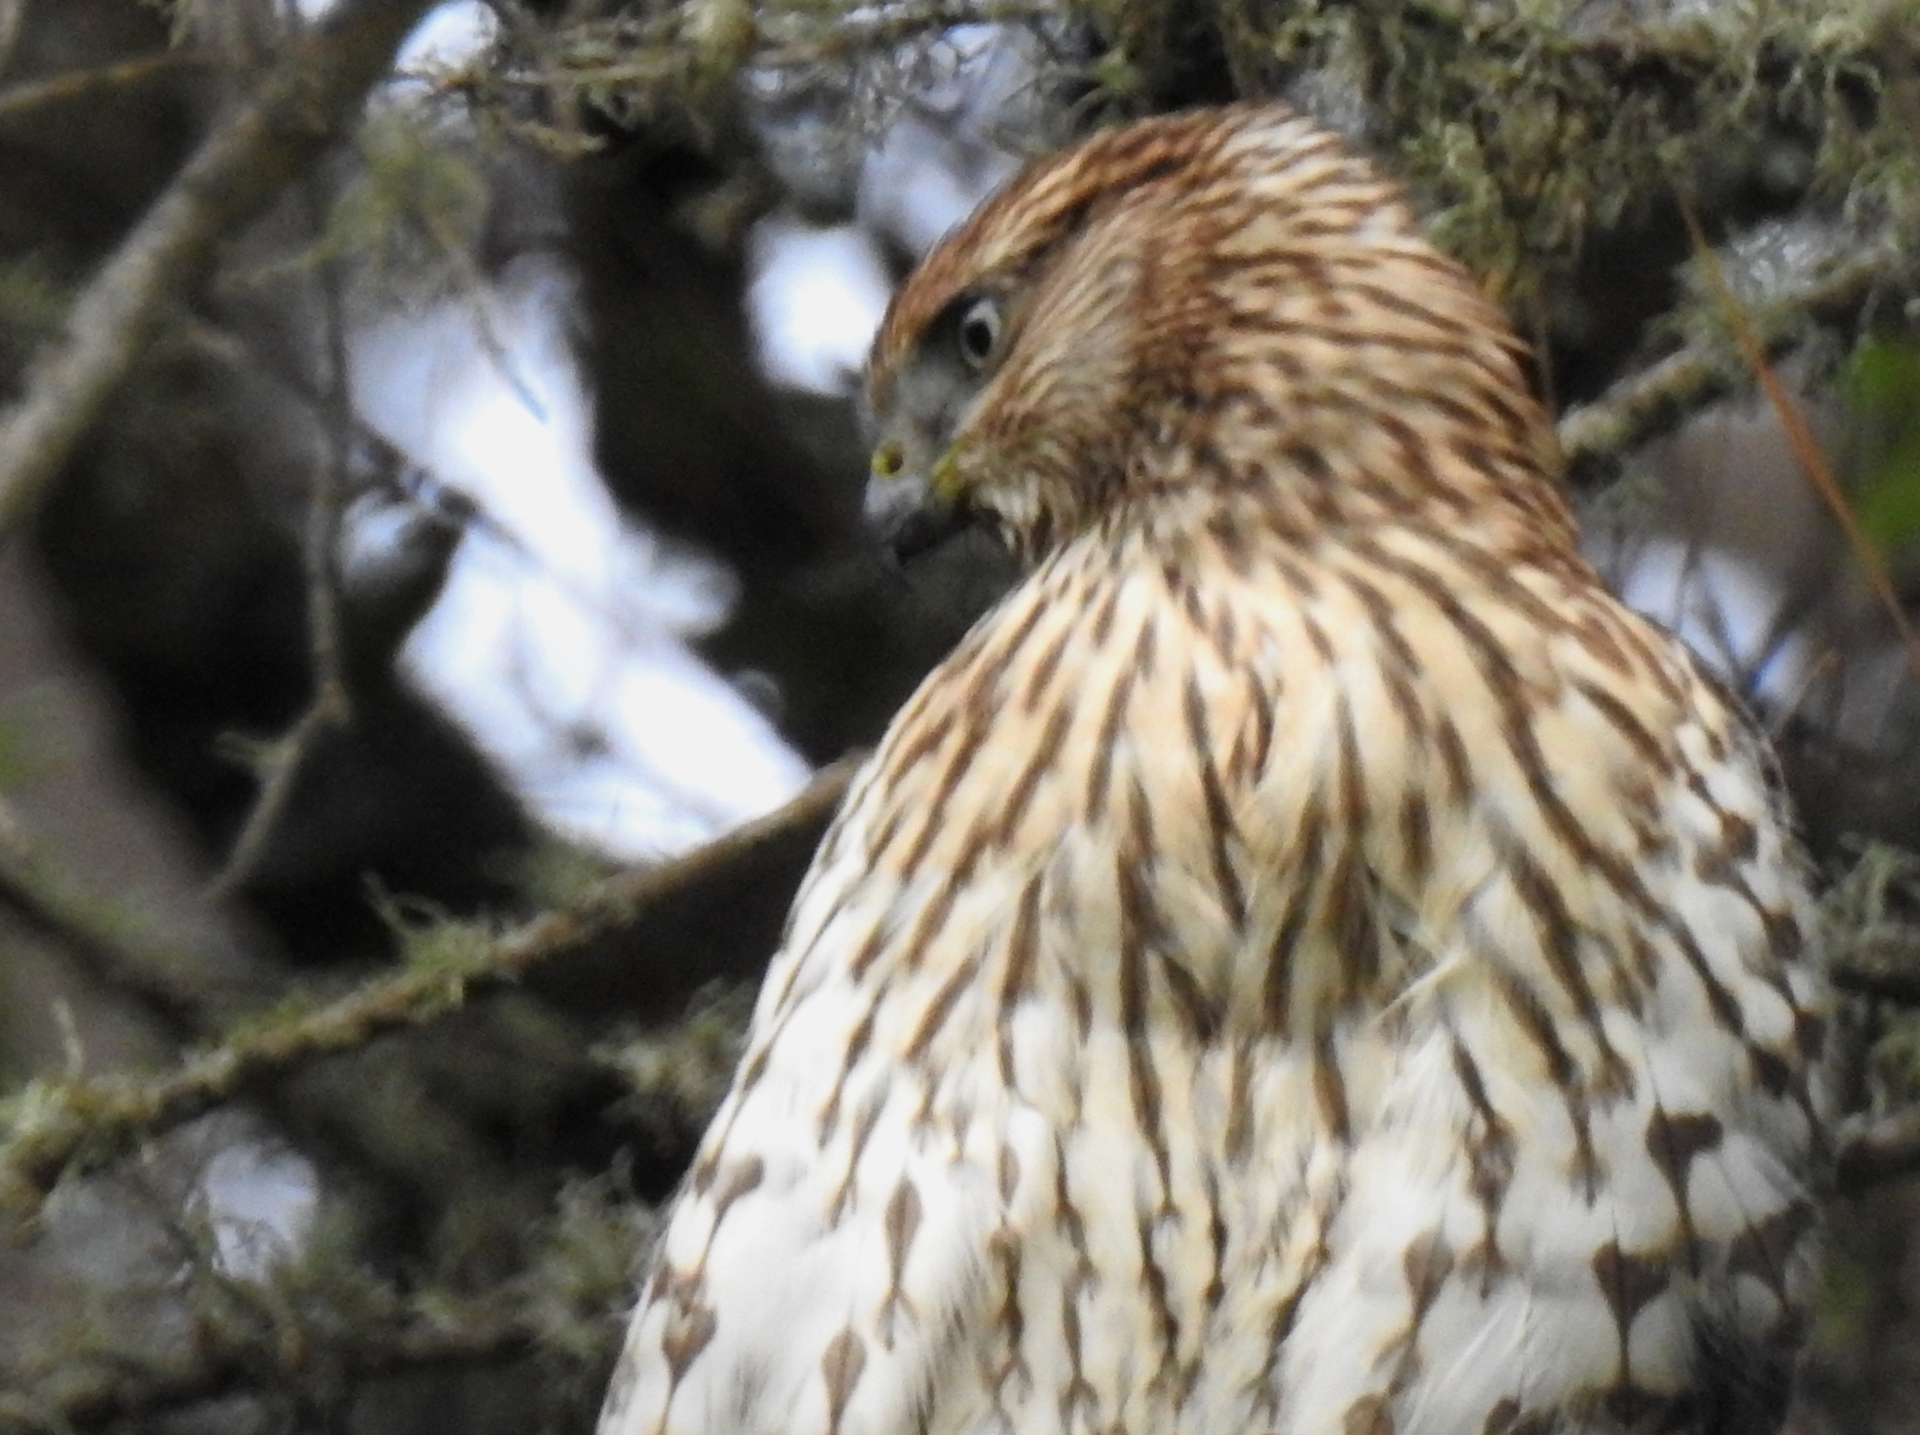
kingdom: Animalia
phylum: Chordata
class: Aves
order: Accipitriformes
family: Accipitridae
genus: Accipiter
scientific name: Accipiter cooperii
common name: Cooper's hawk
